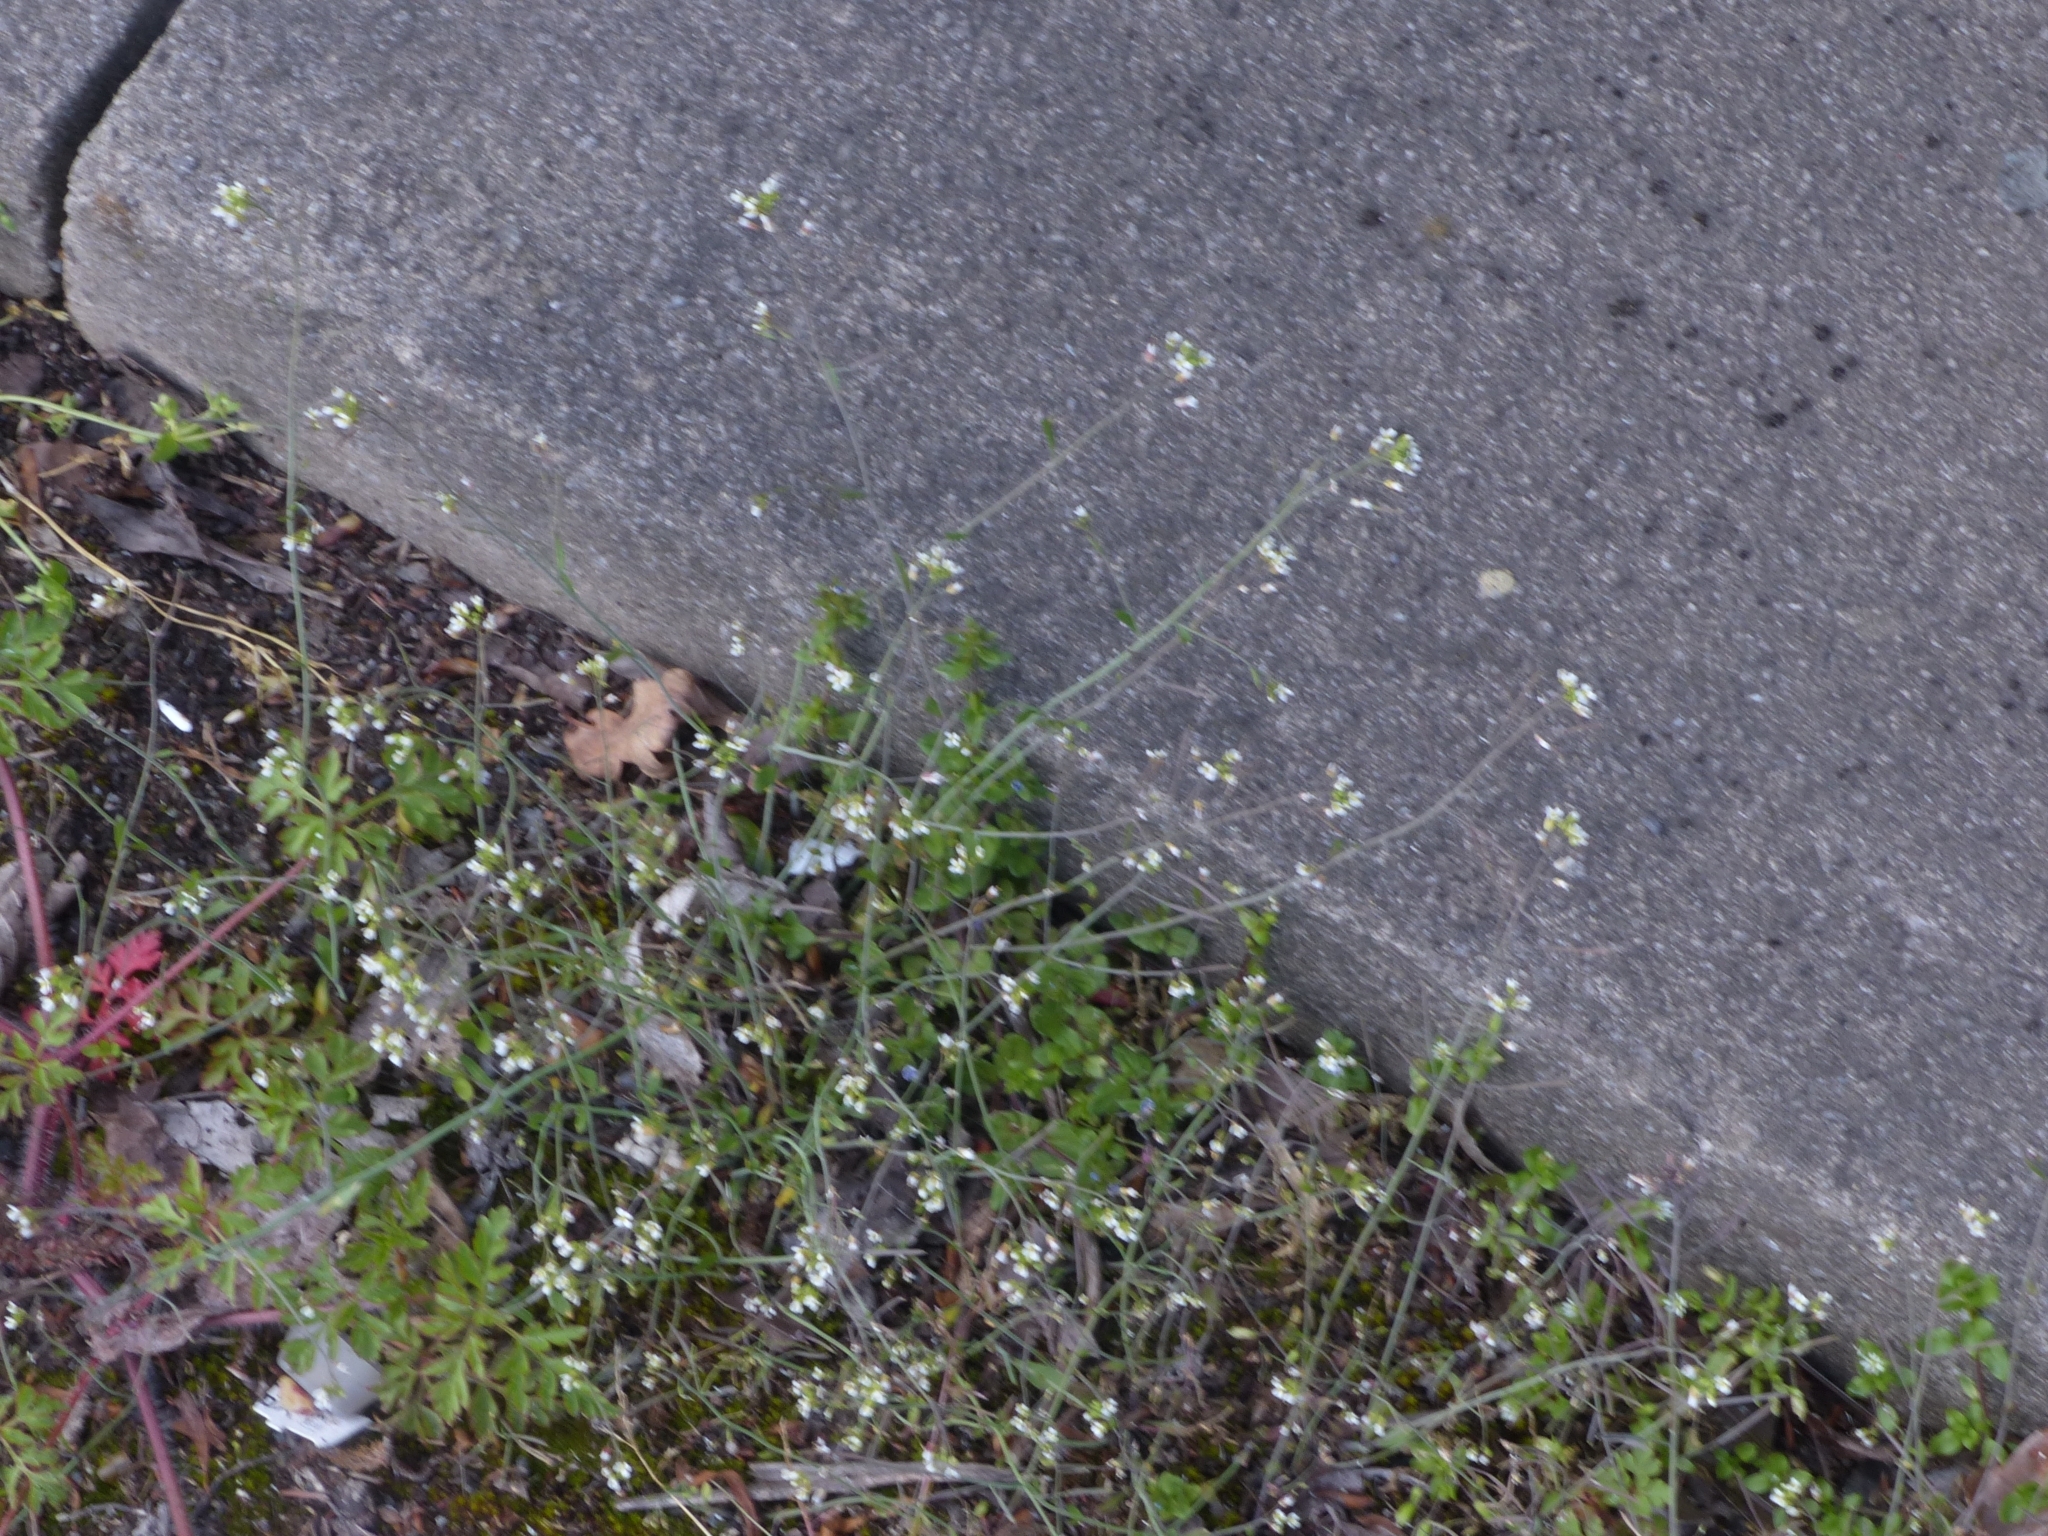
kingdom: Plantae
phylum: Tracheophyta
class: Magnoliopsida
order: Brassicales
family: Brassicaceae
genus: Arabidopsis
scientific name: Arabidopsis thaliana
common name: Thale cress
